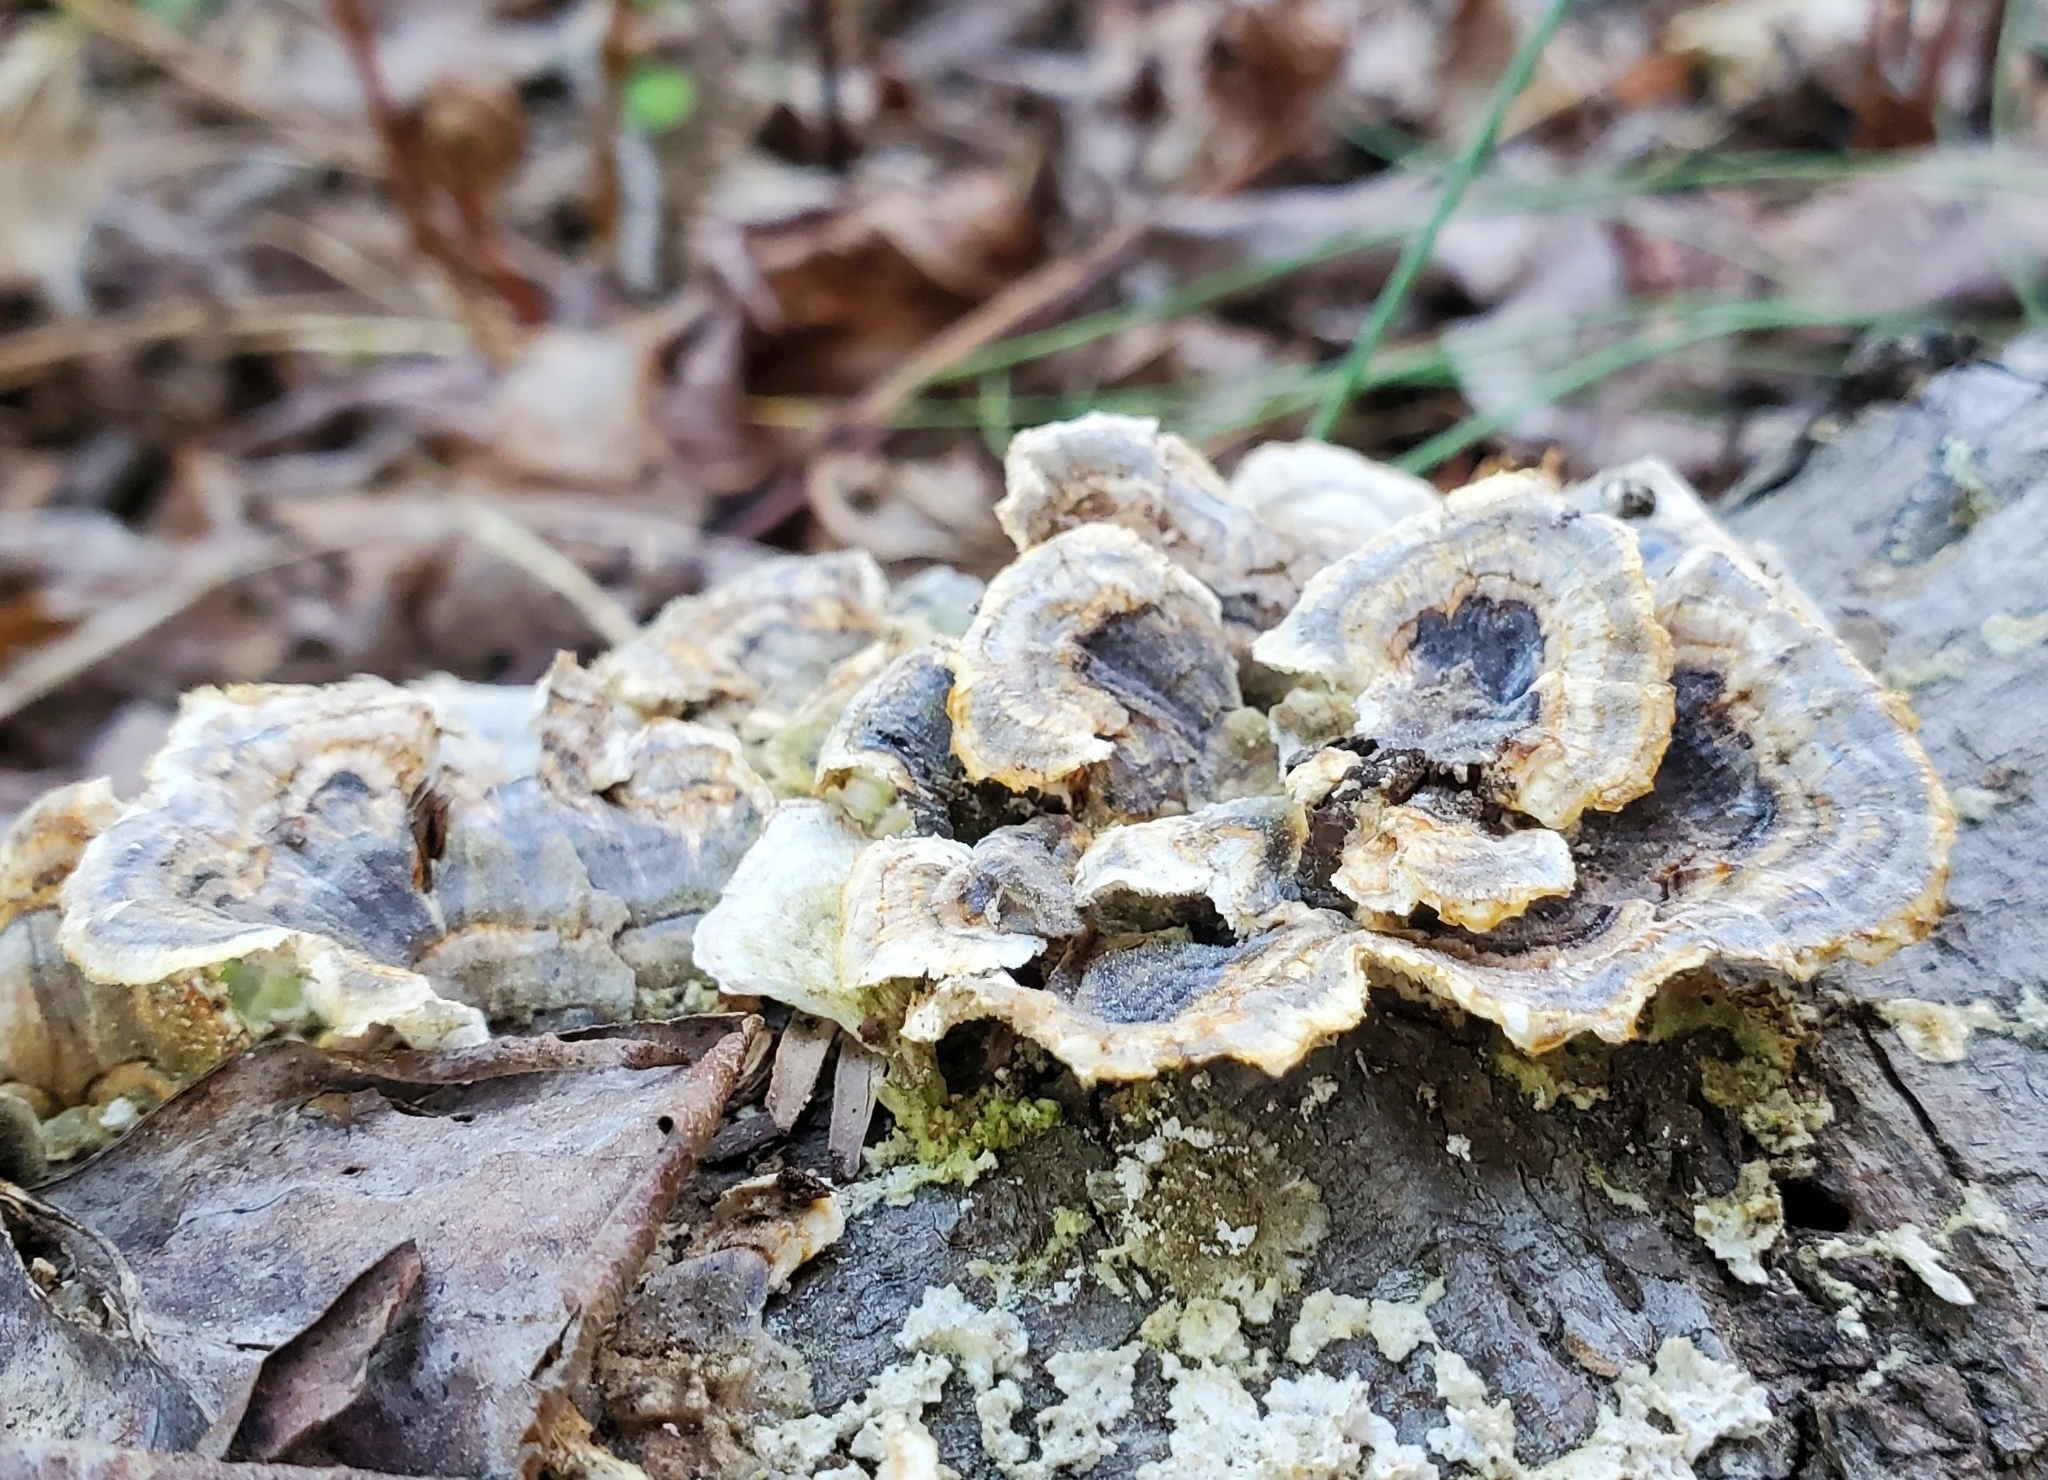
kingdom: Fungi
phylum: Basidiomycota
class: Agaricomycetes
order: Polyporales
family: Polyporaceae
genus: Trametes
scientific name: Trametes versicolor
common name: Turkeytail
